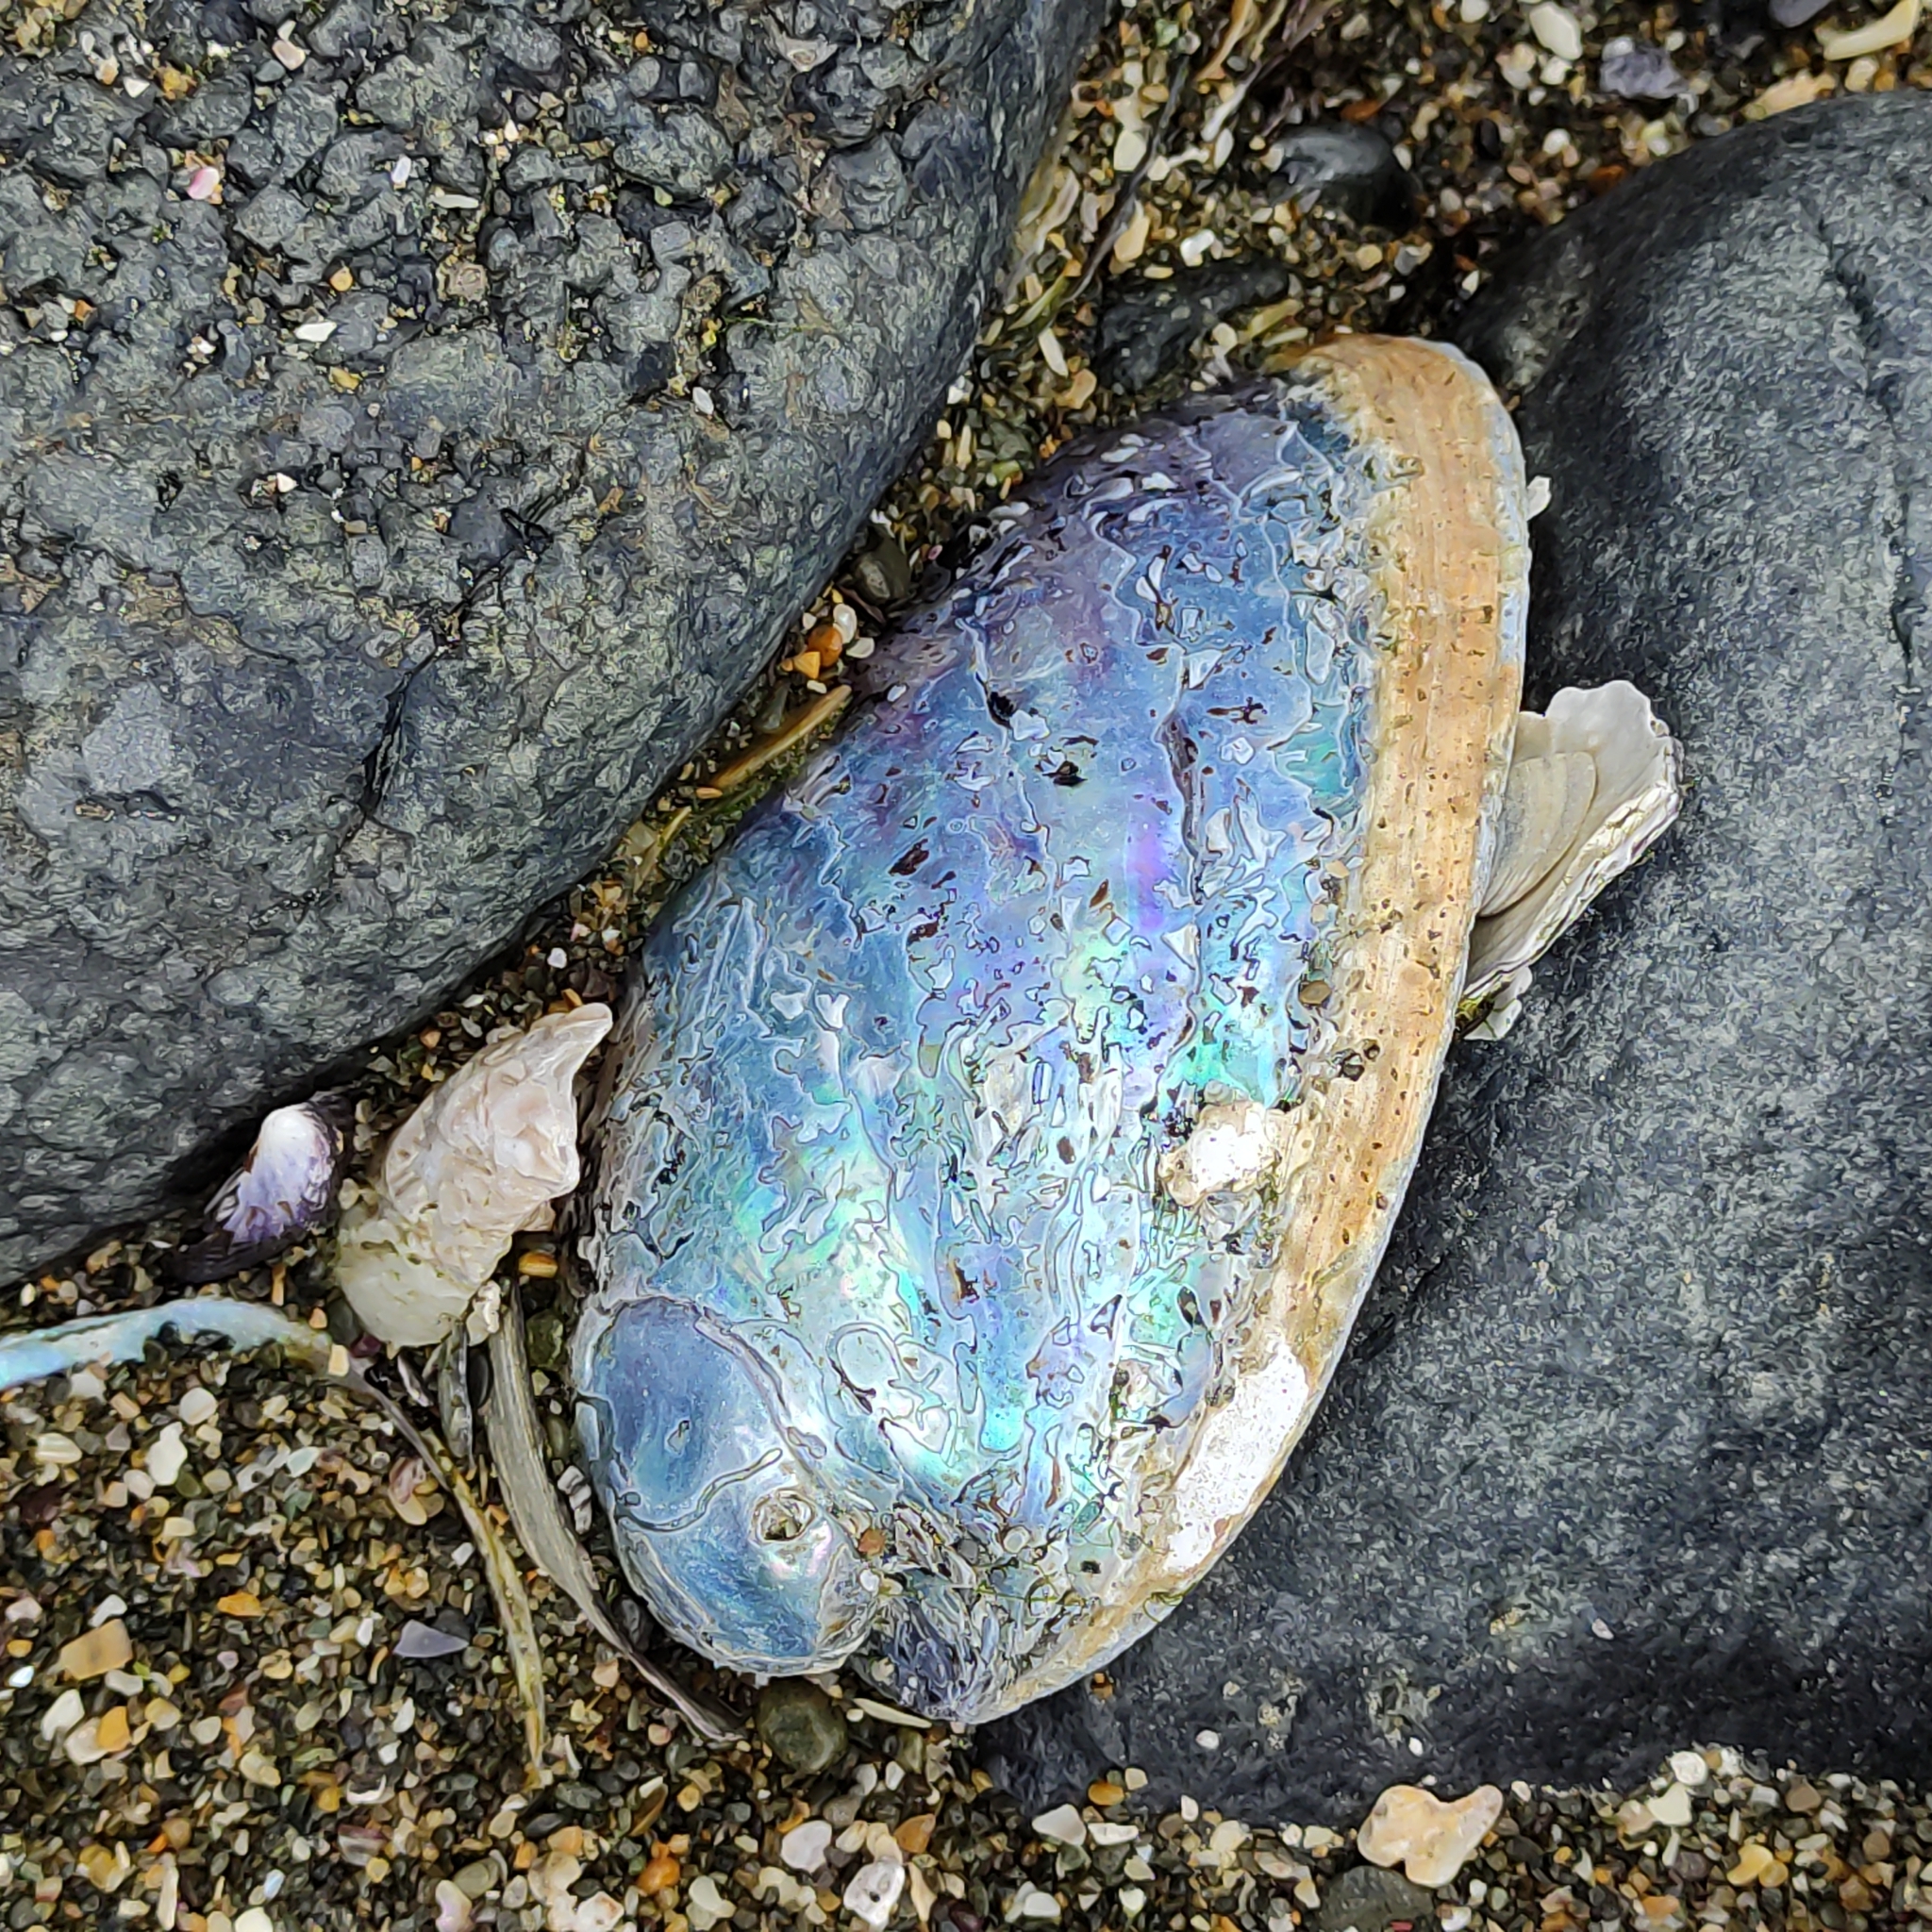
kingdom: Animalia
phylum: Mollusca
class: Gastropoda
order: Lepetellida
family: Haliotidae
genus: Haliotis
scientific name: Haliotis iris
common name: Abalone
